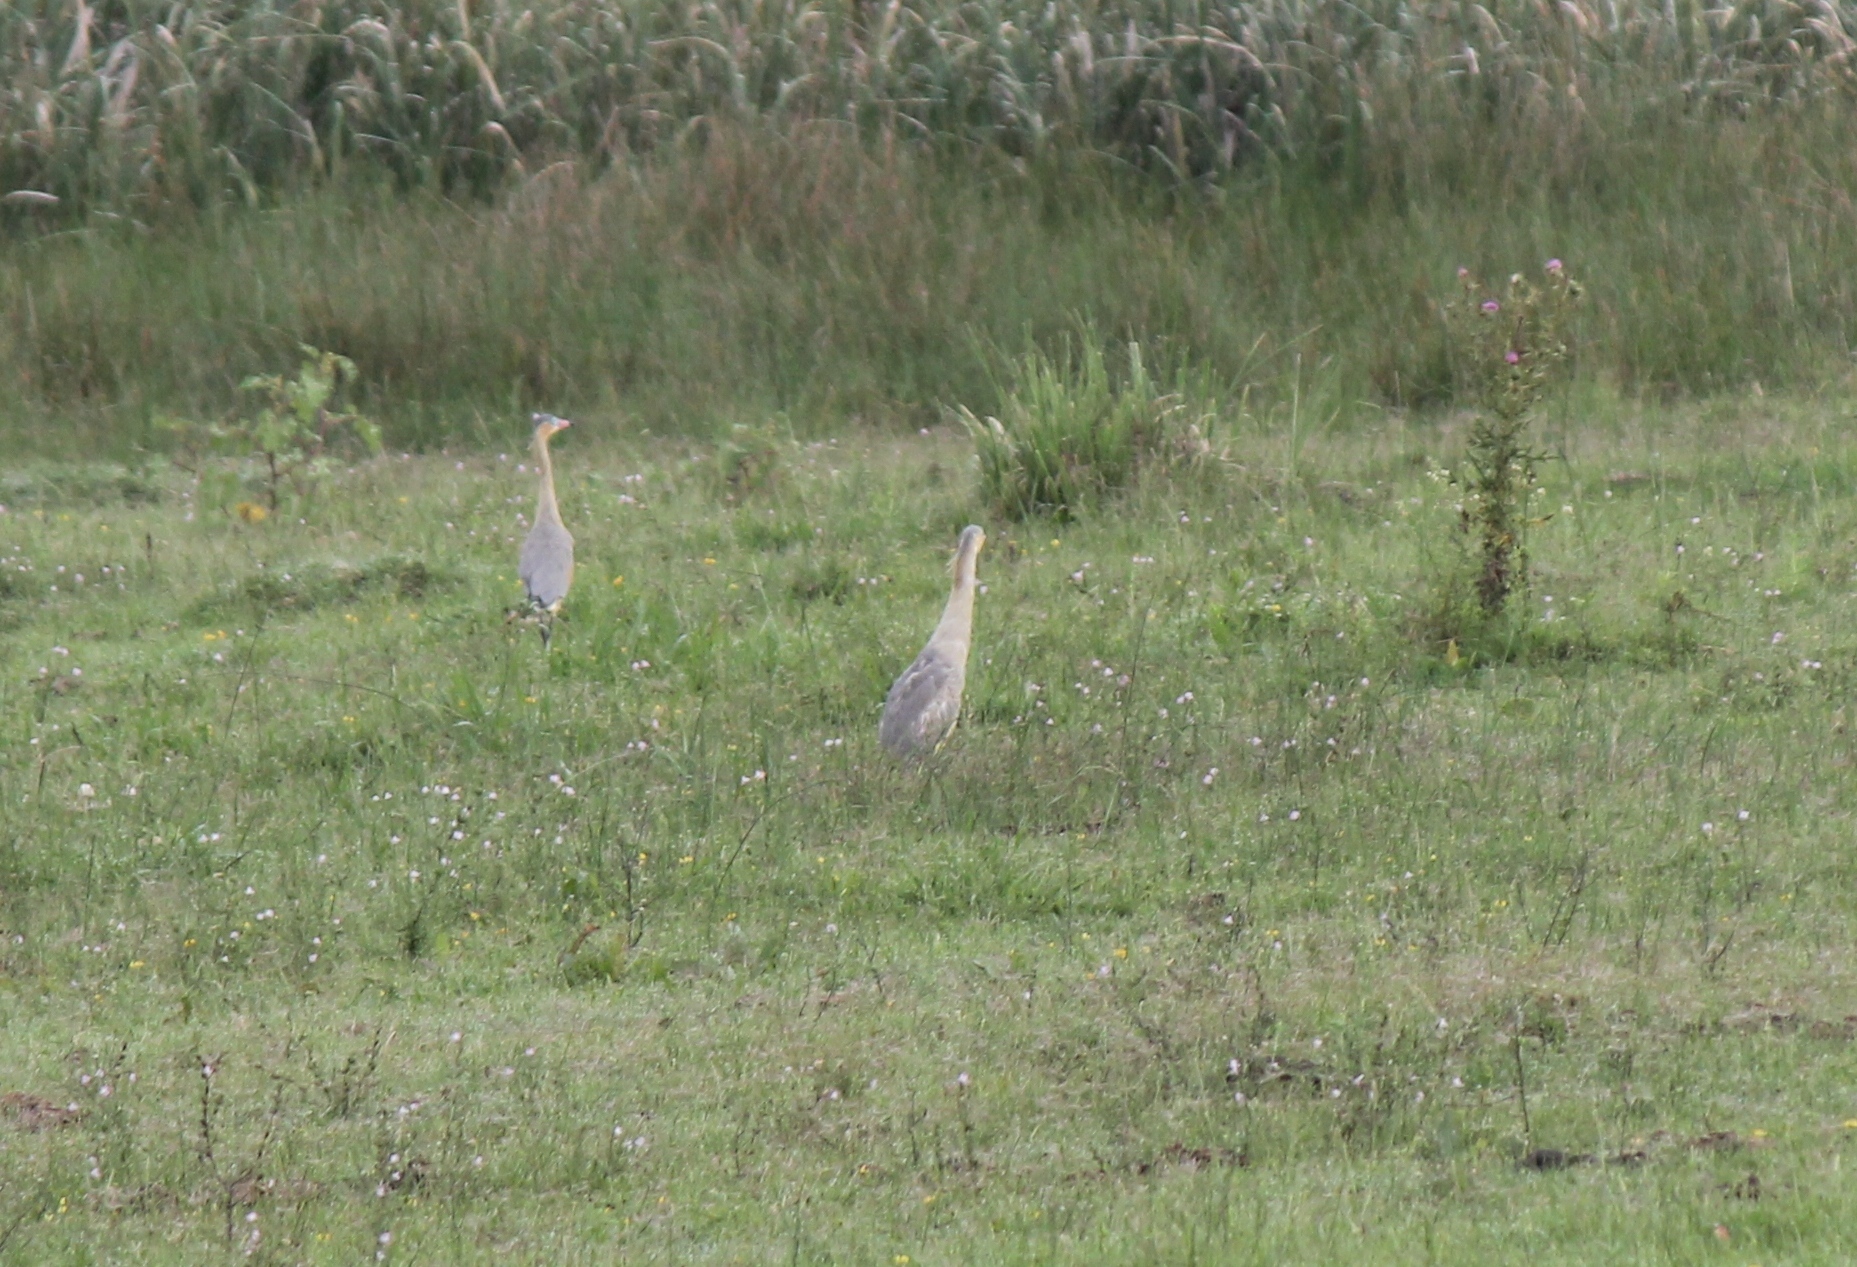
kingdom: Animalia
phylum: Chordata
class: Aves
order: Pelecaniformes
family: Ardeidae
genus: Syrigma
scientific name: Syrigma sibilatrix
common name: Whistling heron
